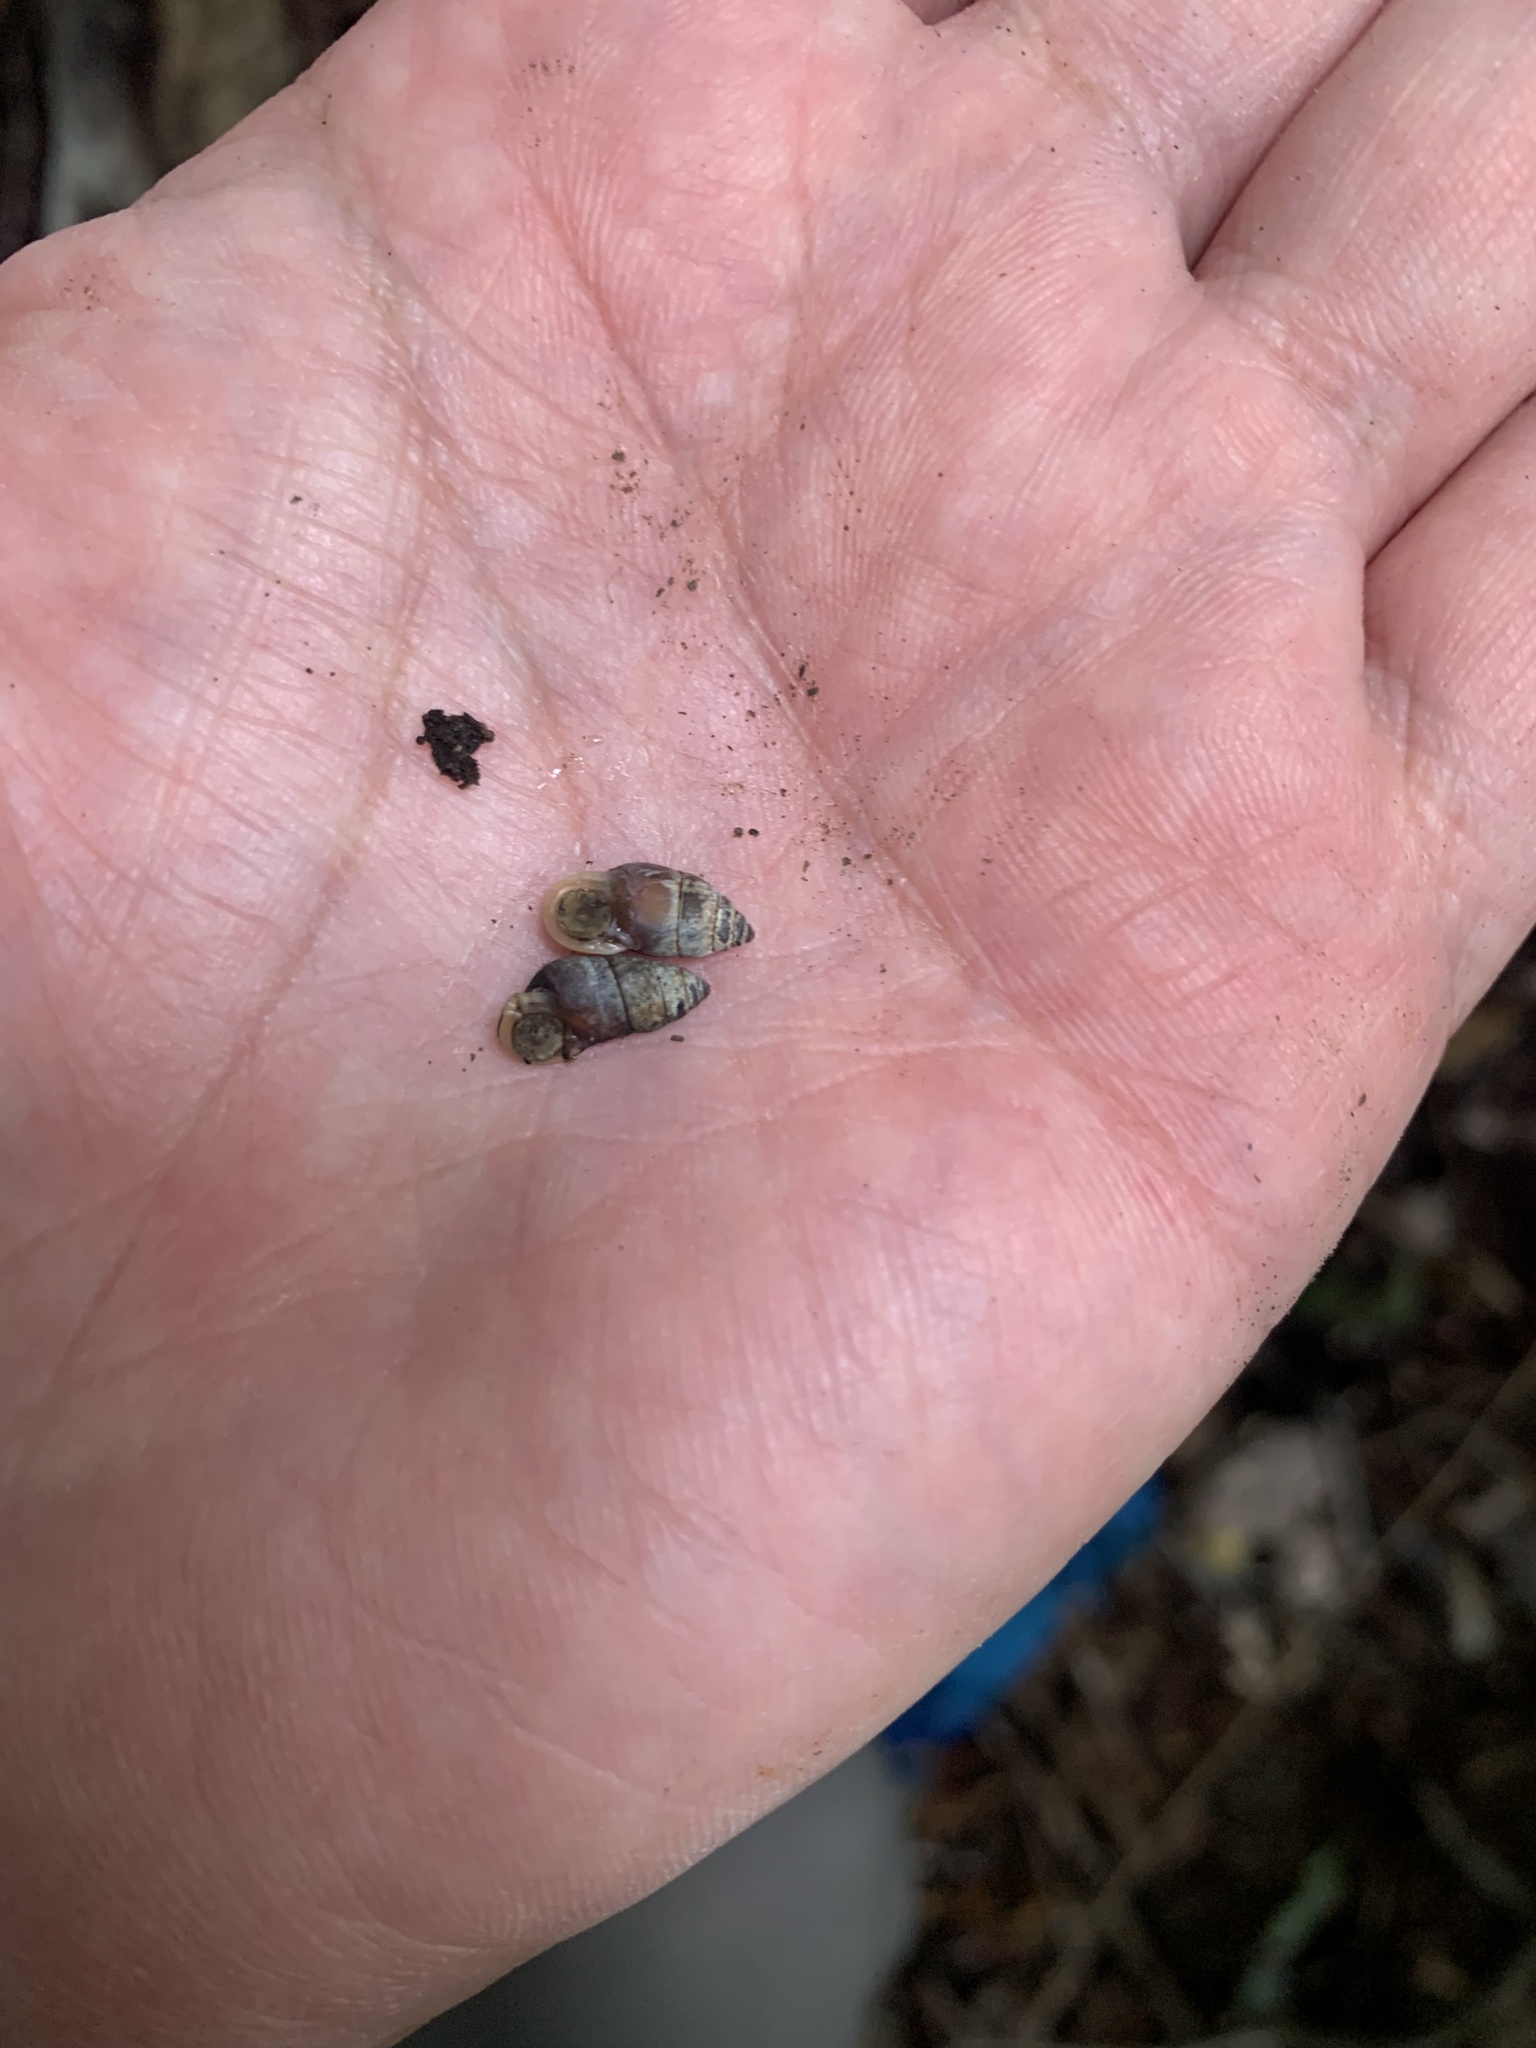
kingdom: Animalia
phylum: Mollusca
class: Gastropoda
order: Architaenioglossa
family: Pupinidae
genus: Pupinella
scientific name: Pupinella rufa
